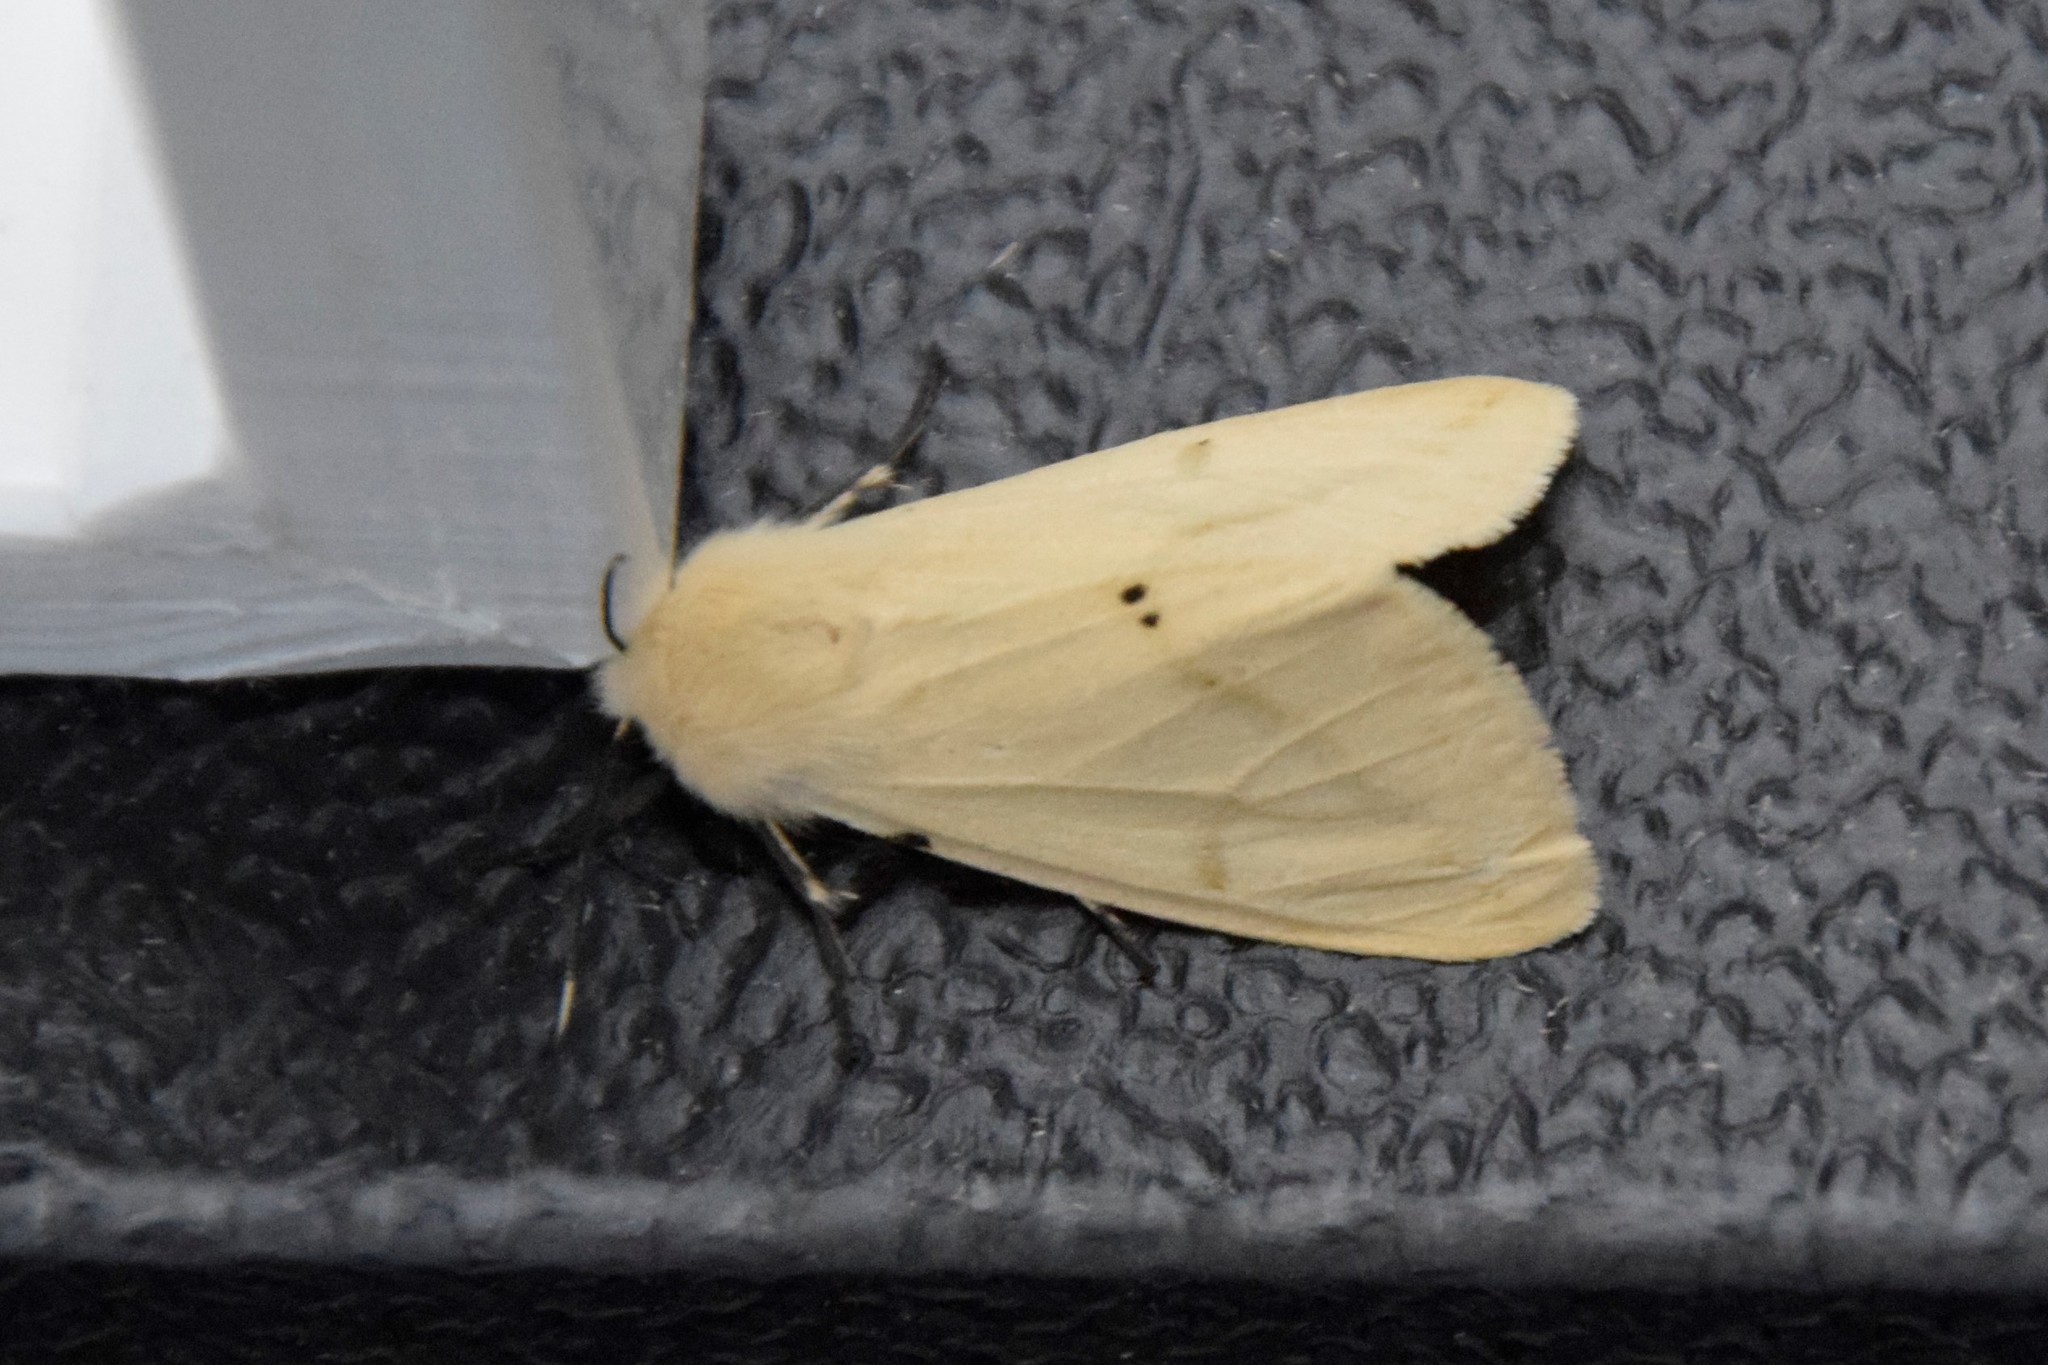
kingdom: Animalia
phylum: Arthropoda
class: Insecta
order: Lepidoptera
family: Erebidae
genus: Spilarctia
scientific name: Spilarctia lutea
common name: Buff ermine
